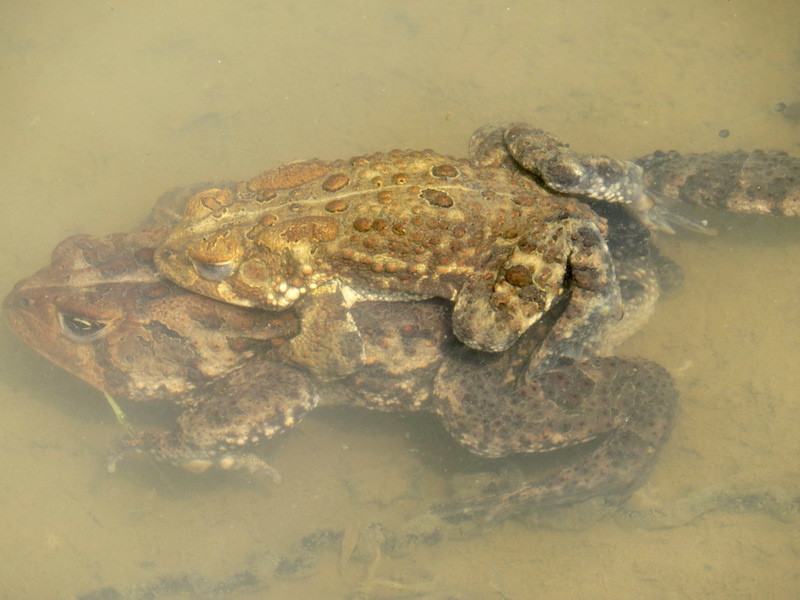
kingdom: Animalia
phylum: Chordata
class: Amphibia
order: Anura
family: Bufonidae
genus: Anaxyrus
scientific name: Anaxyrus americanus
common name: American toad
